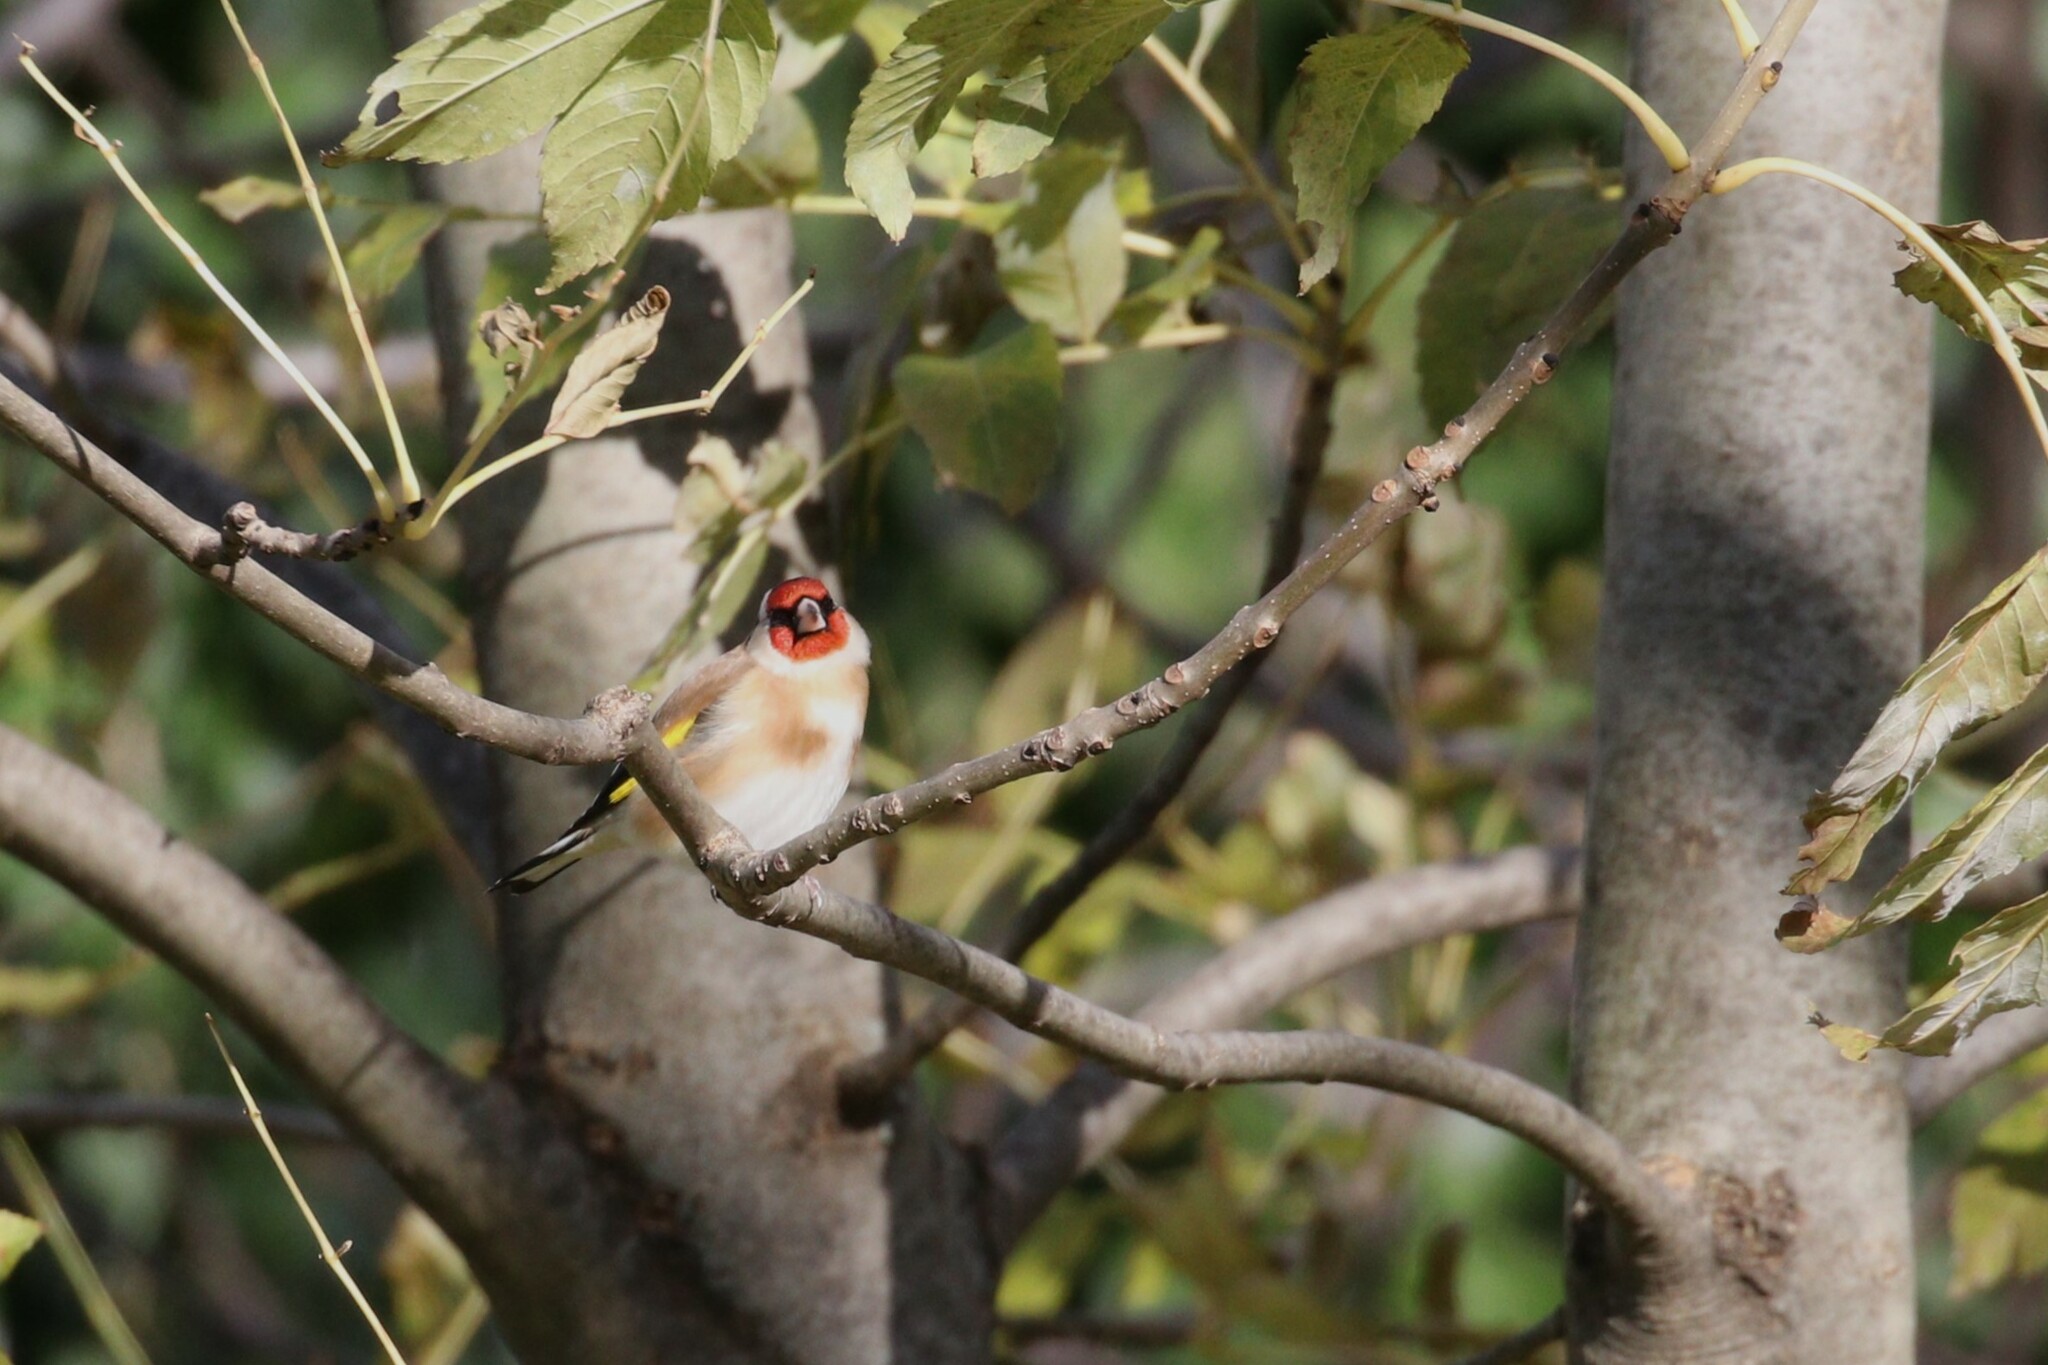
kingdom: Animalia
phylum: Chordata
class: Aves
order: Passeriformes
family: Fringillidae
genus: Carduelis
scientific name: Carduelis carduelis
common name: European goldfinch
